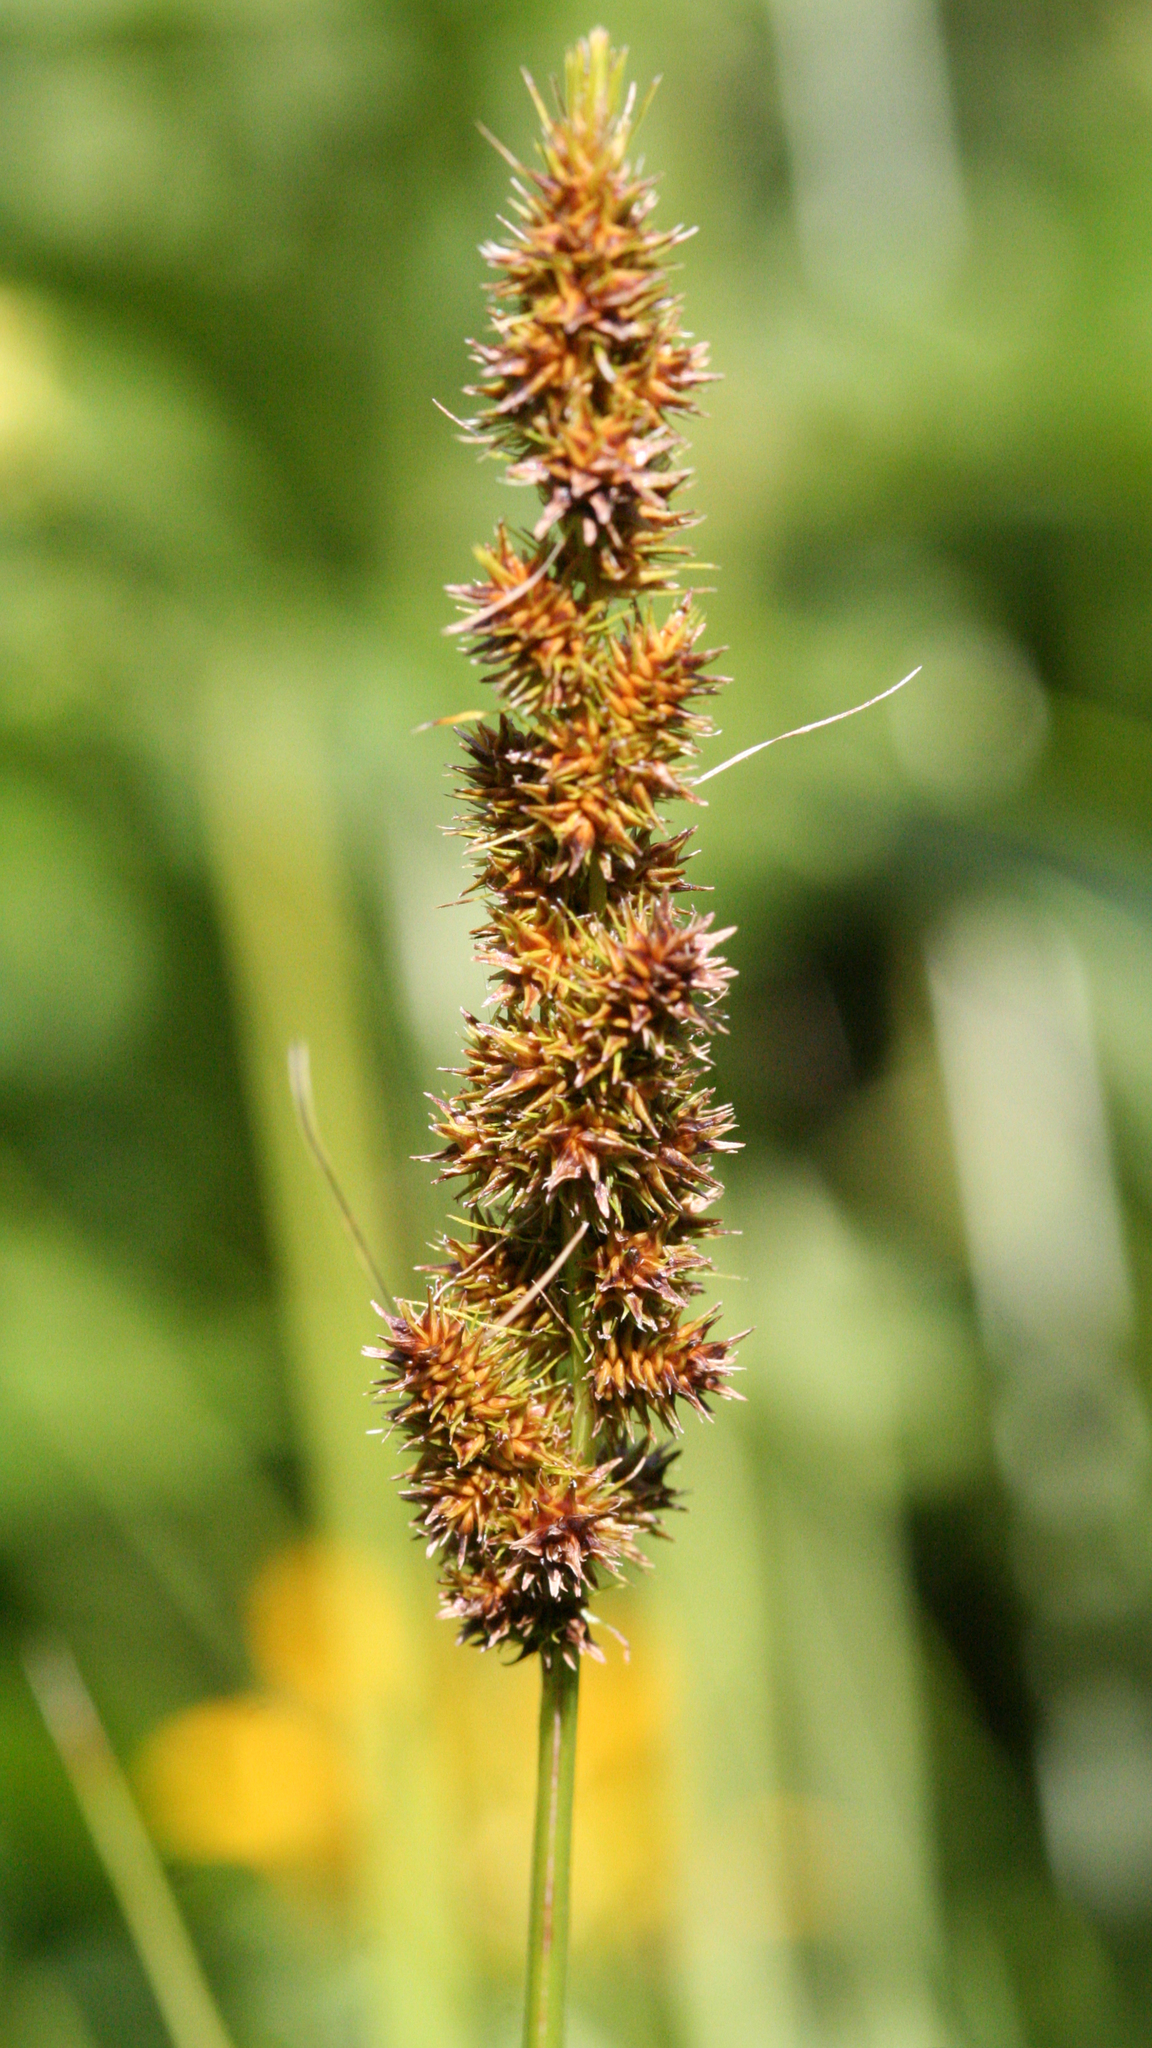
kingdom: Plantae
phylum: Tracheophyta
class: Liliopsida
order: Poales
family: Cyperaceae
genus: Carex
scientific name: Carex vulpinoidea
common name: American fox-sedge
